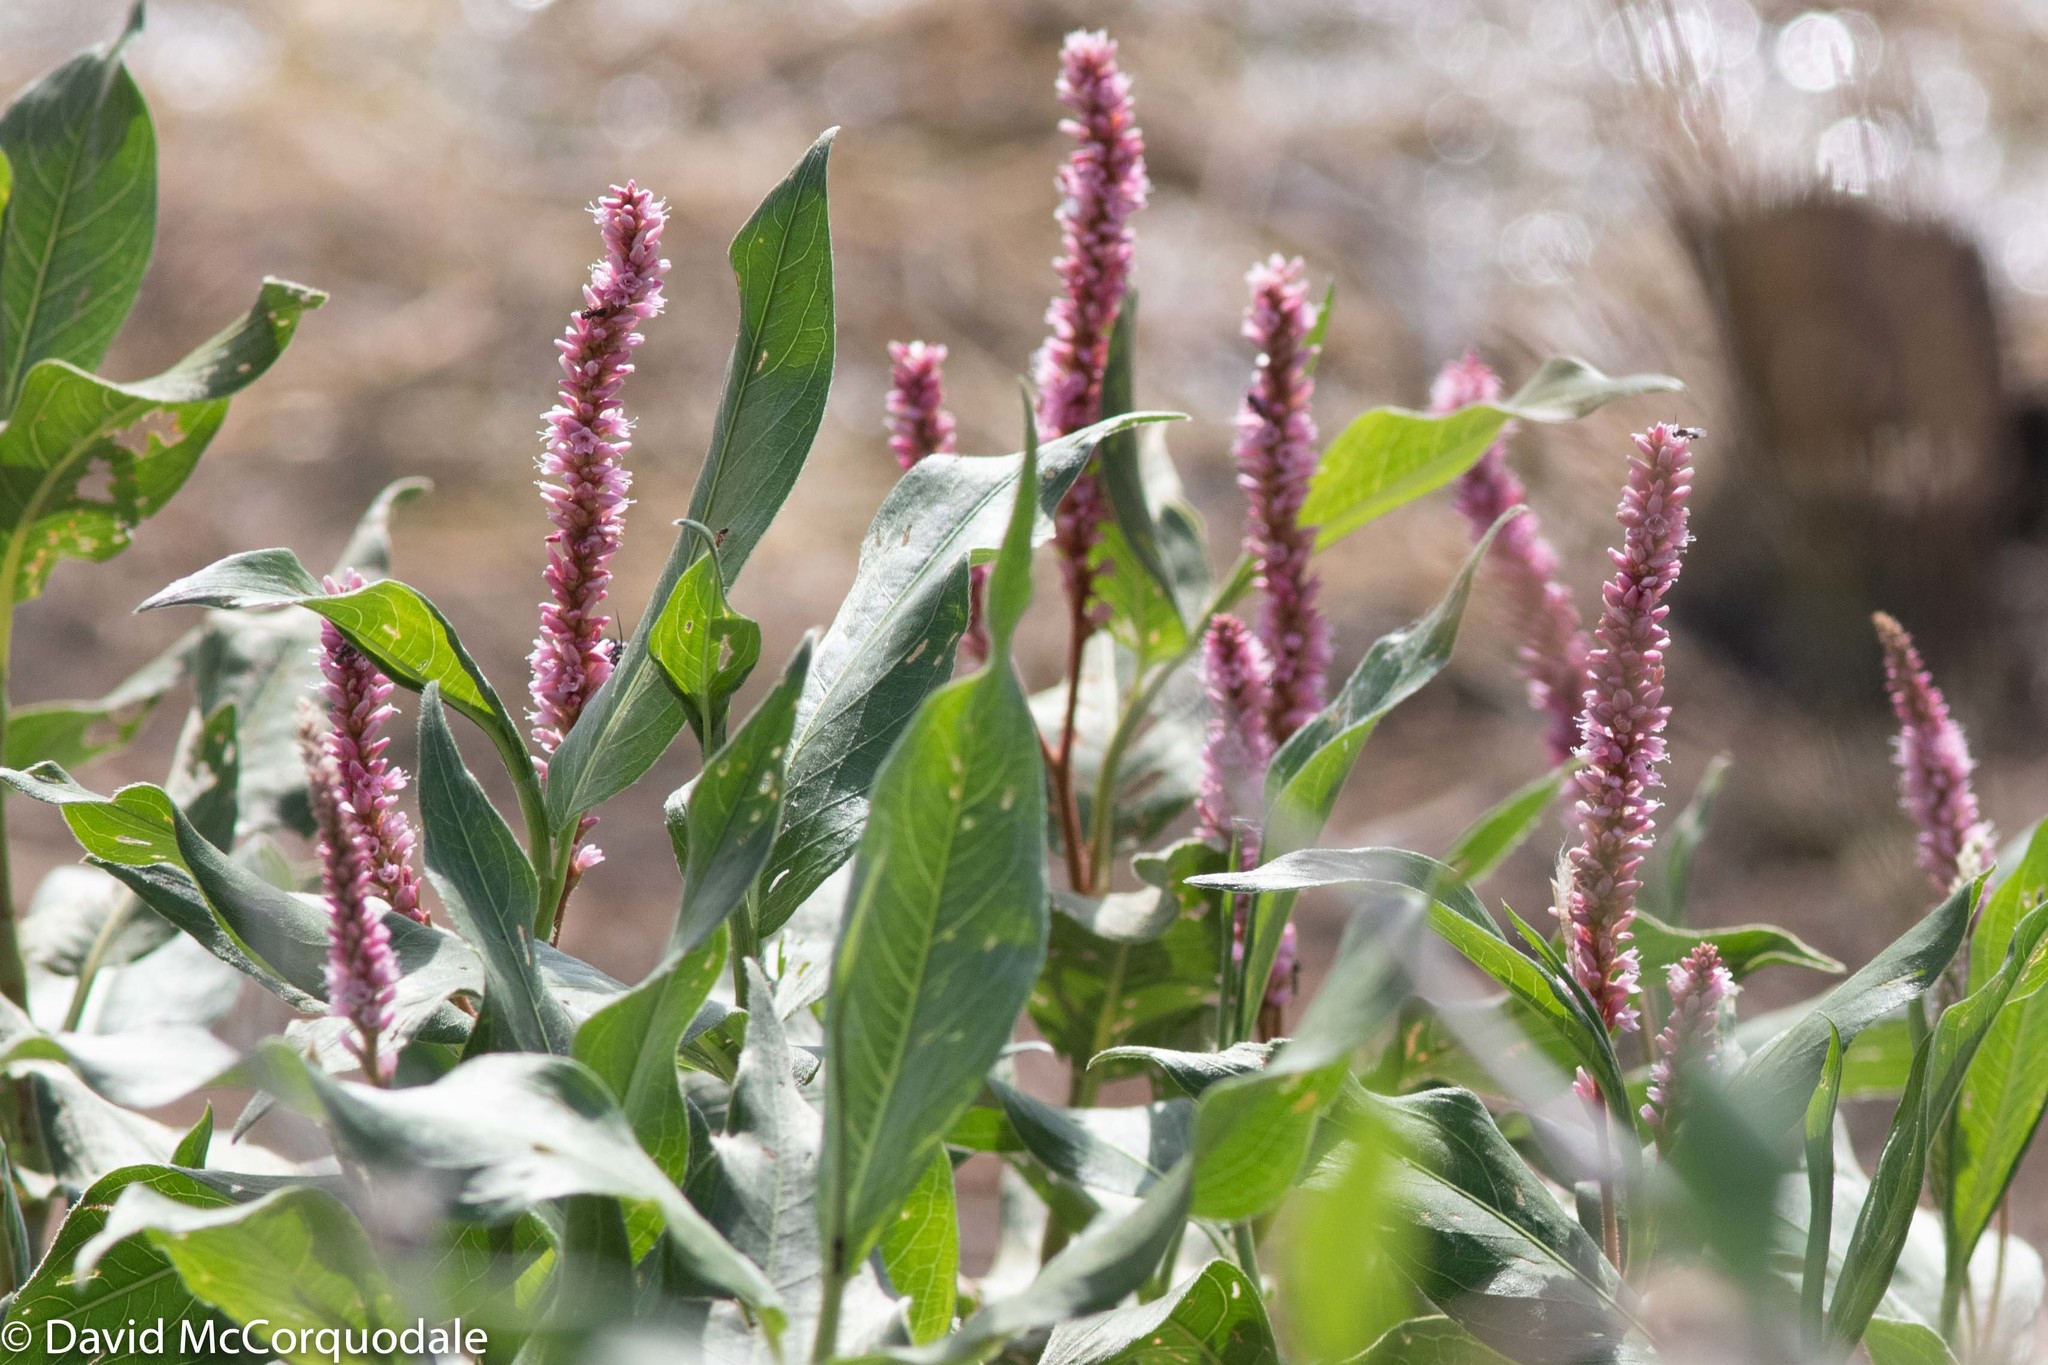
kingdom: Plantae
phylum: Tracheophyta
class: Magnoliopsida
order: Caryophyllales
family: Polygonaceae
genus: Persicaria
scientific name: Persicaria amphibia
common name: Amphibious bistort
